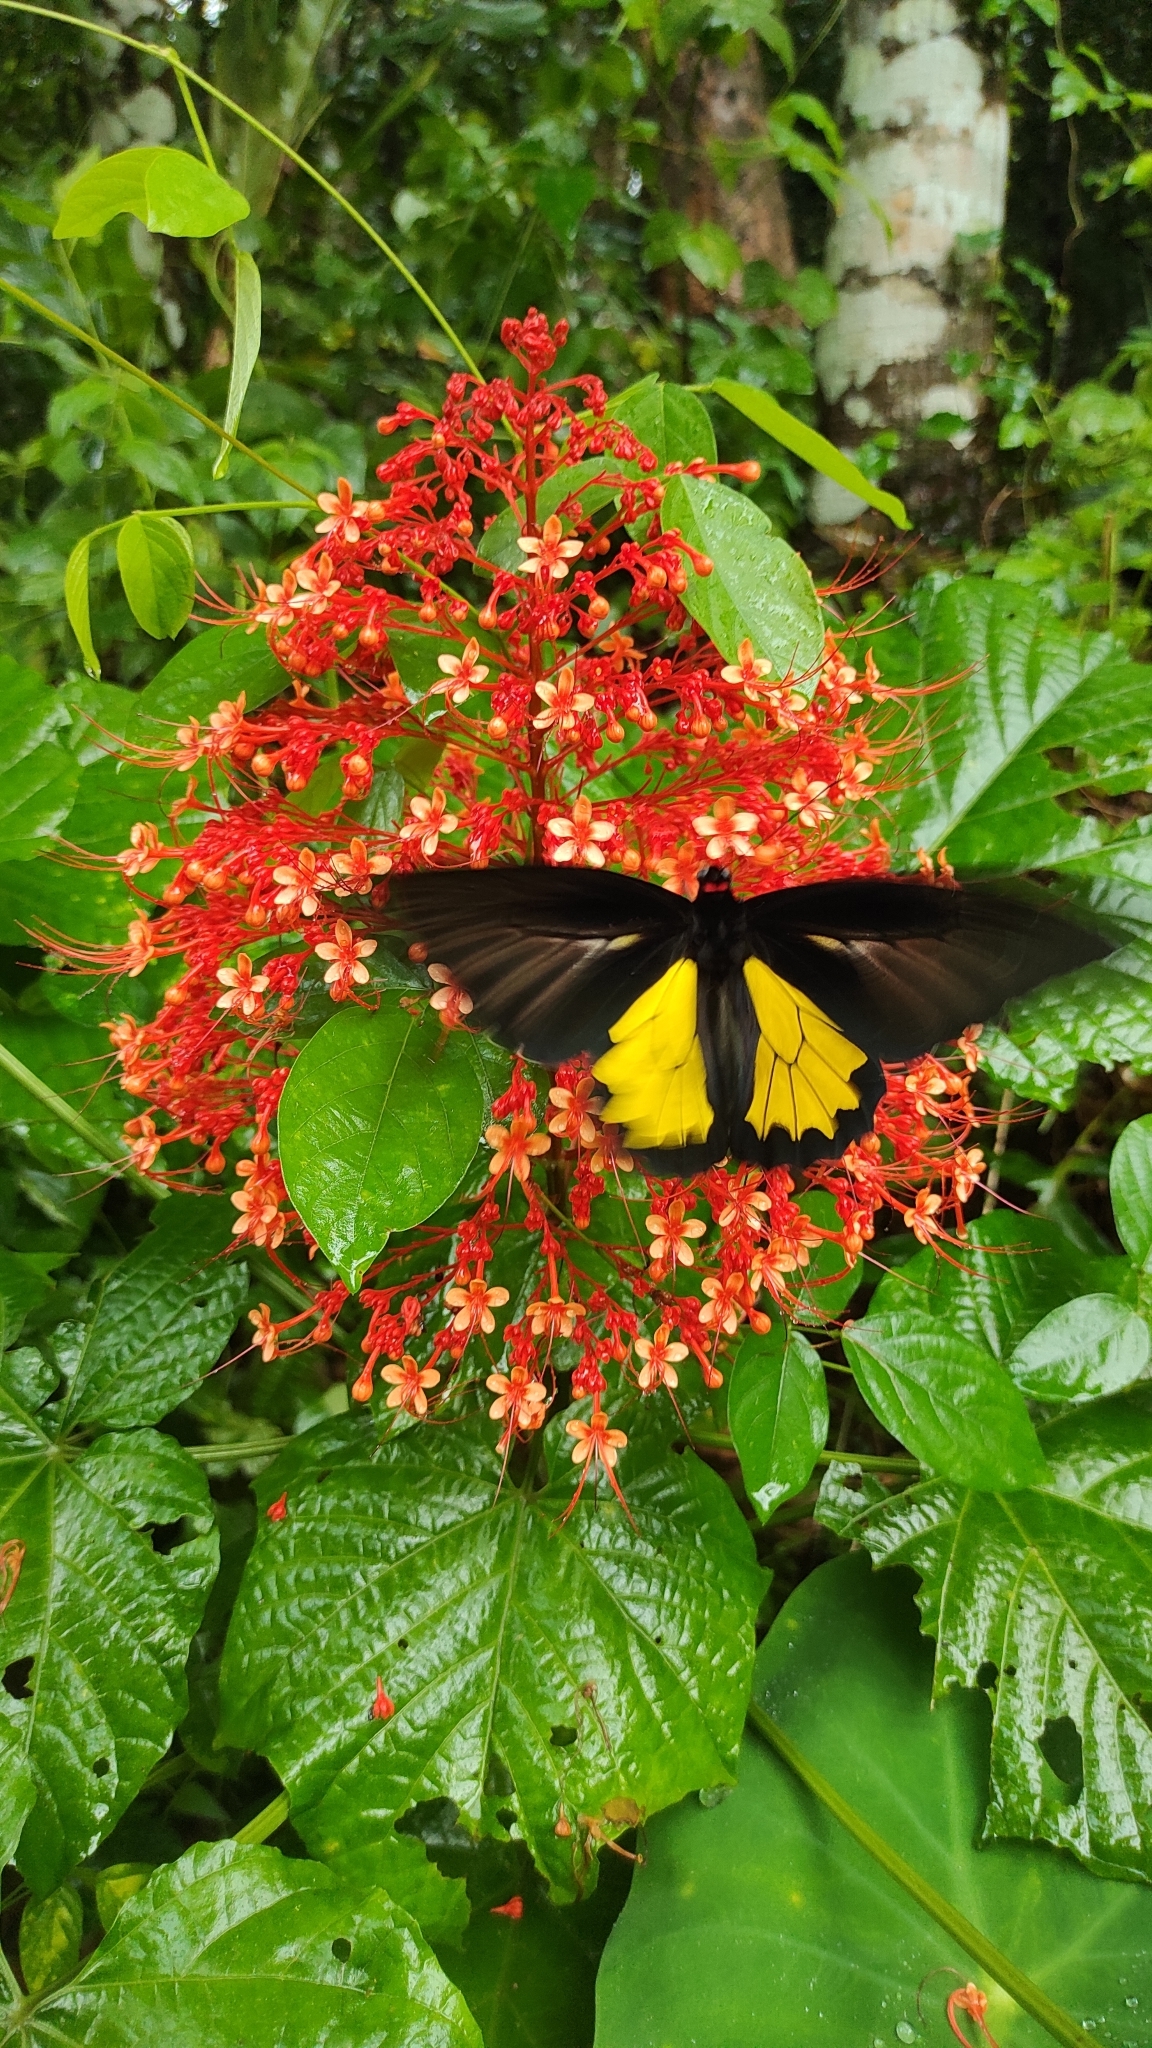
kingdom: Animalia
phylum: Arthropoda
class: Insecta
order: Lepidoptera
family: Papilionidae
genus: Troides
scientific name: Troides minos
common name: Malabar birdwing
